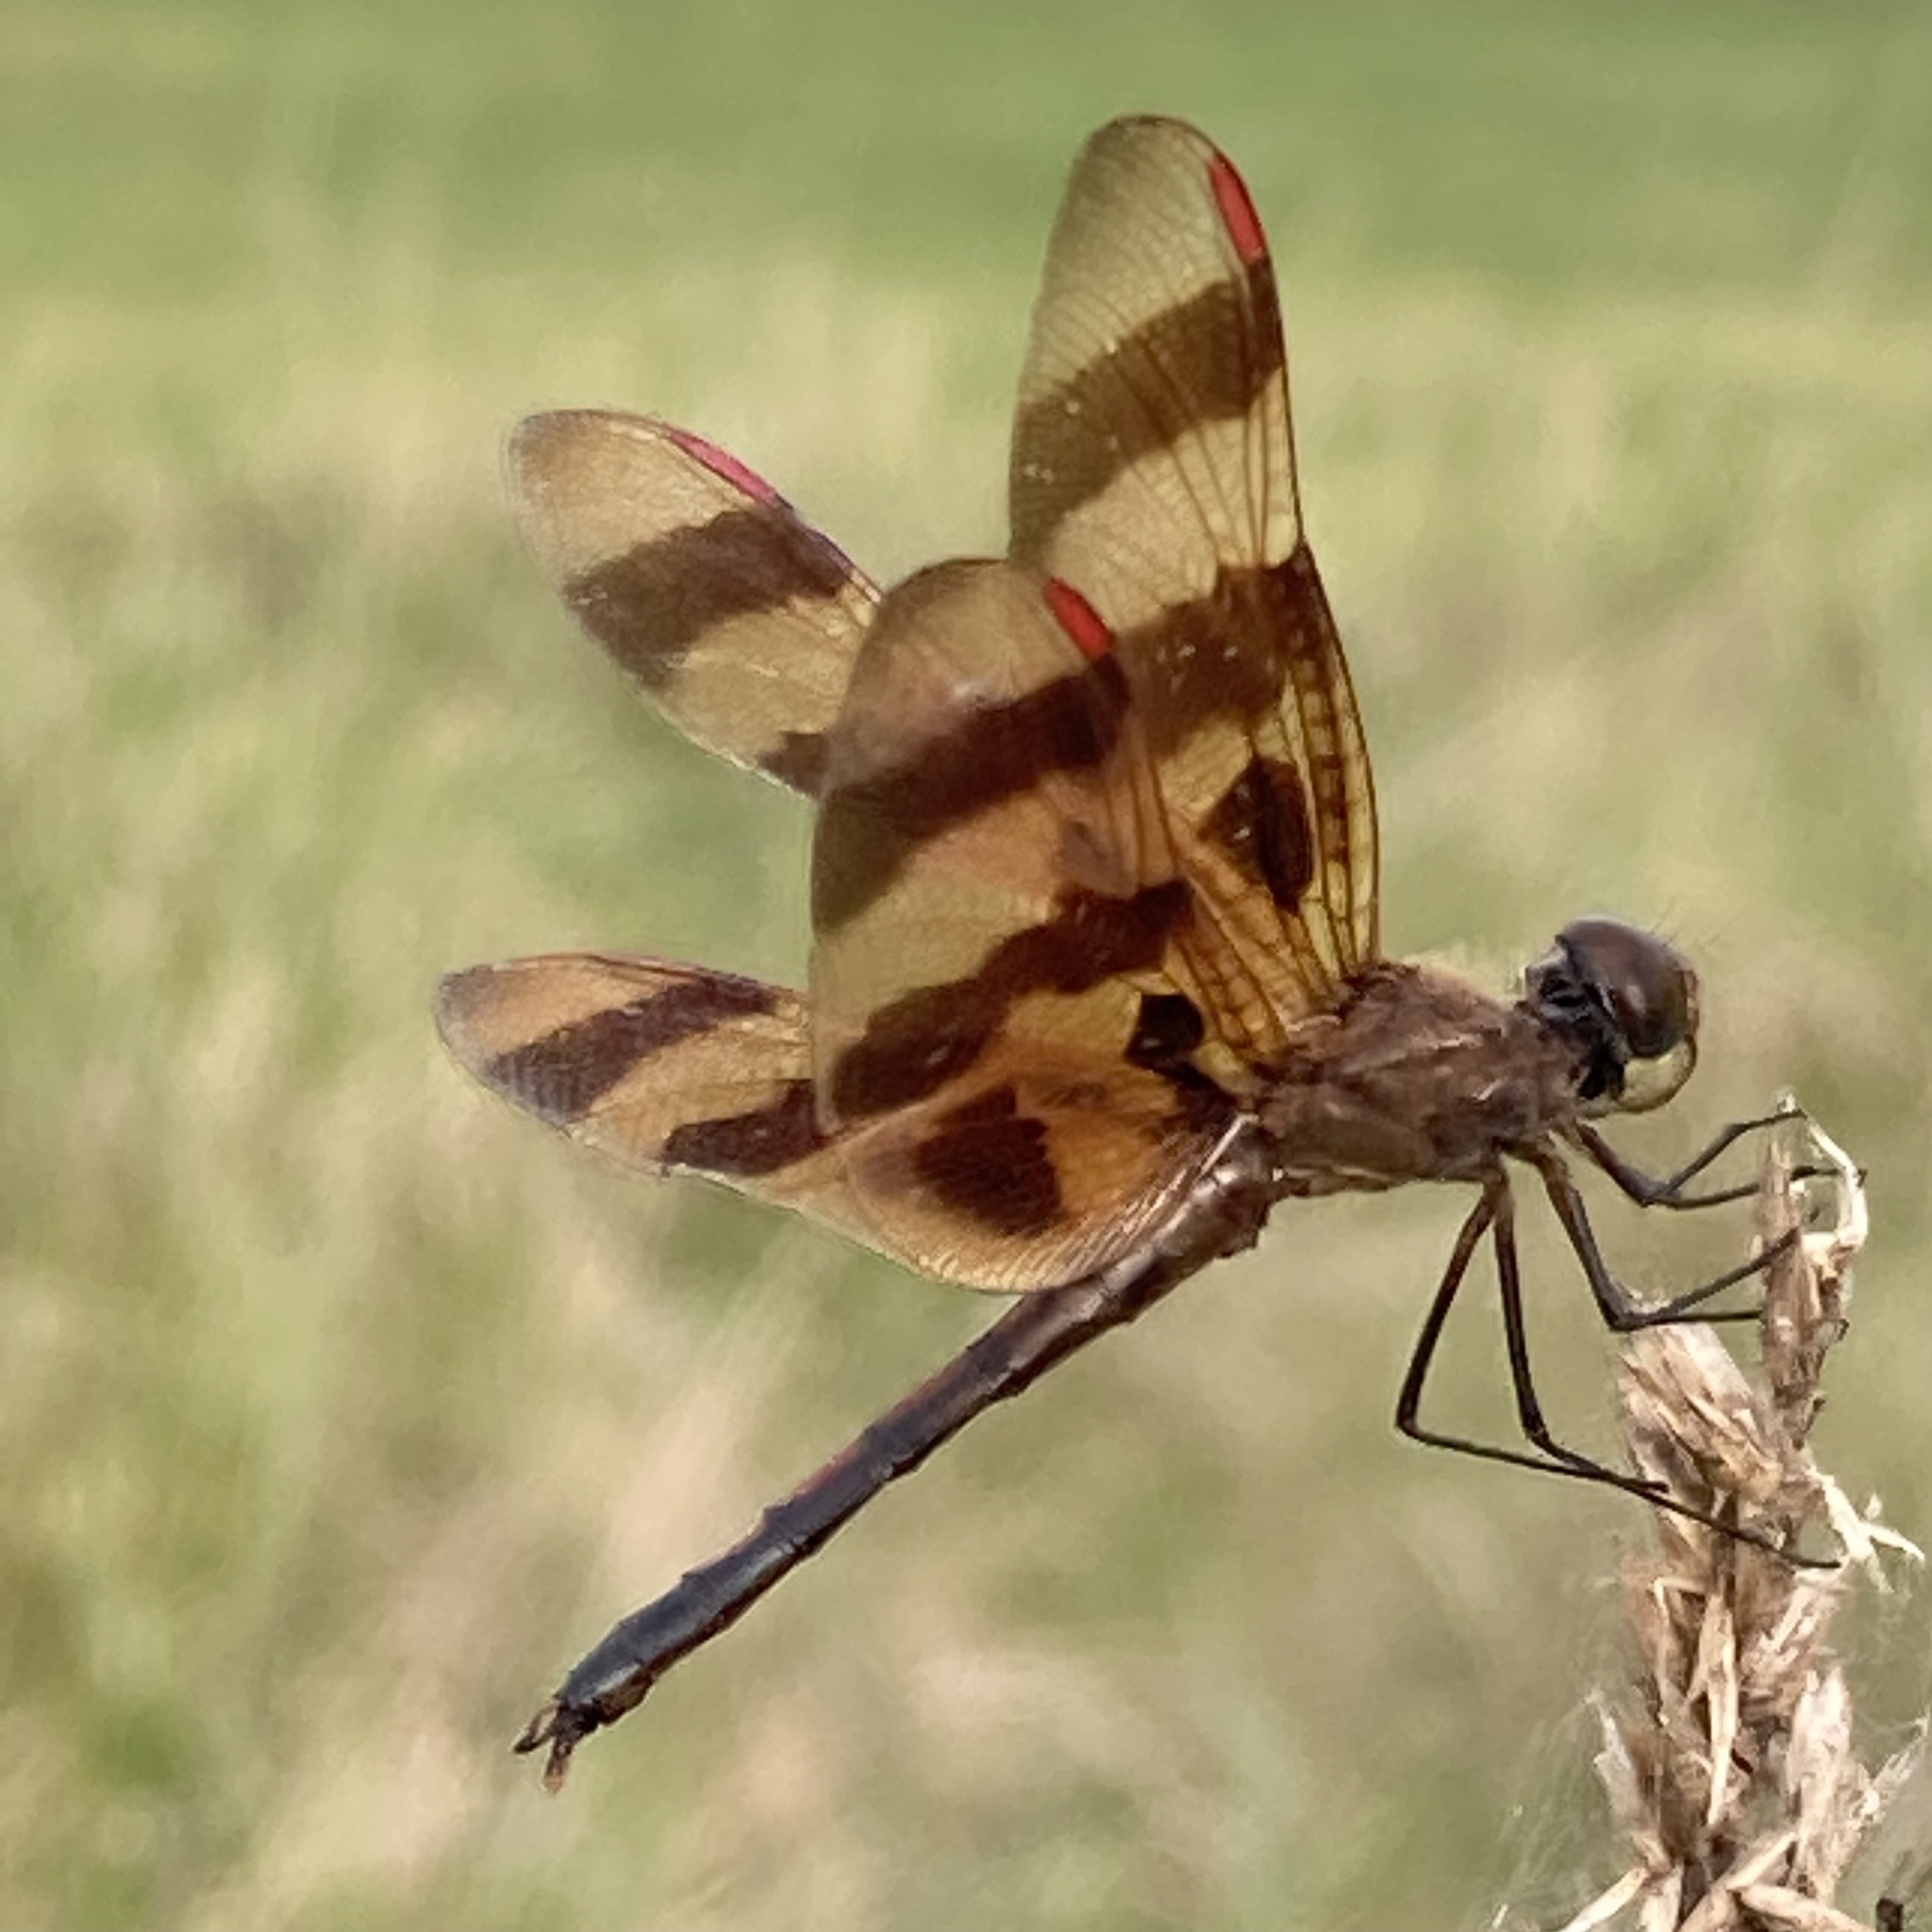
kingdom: Animalia
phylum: Arthropoda
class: Insecta
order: Odonata
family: Libellulidae
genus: Celithemis
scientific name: Celithemis eponina
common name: Halloween pennant
